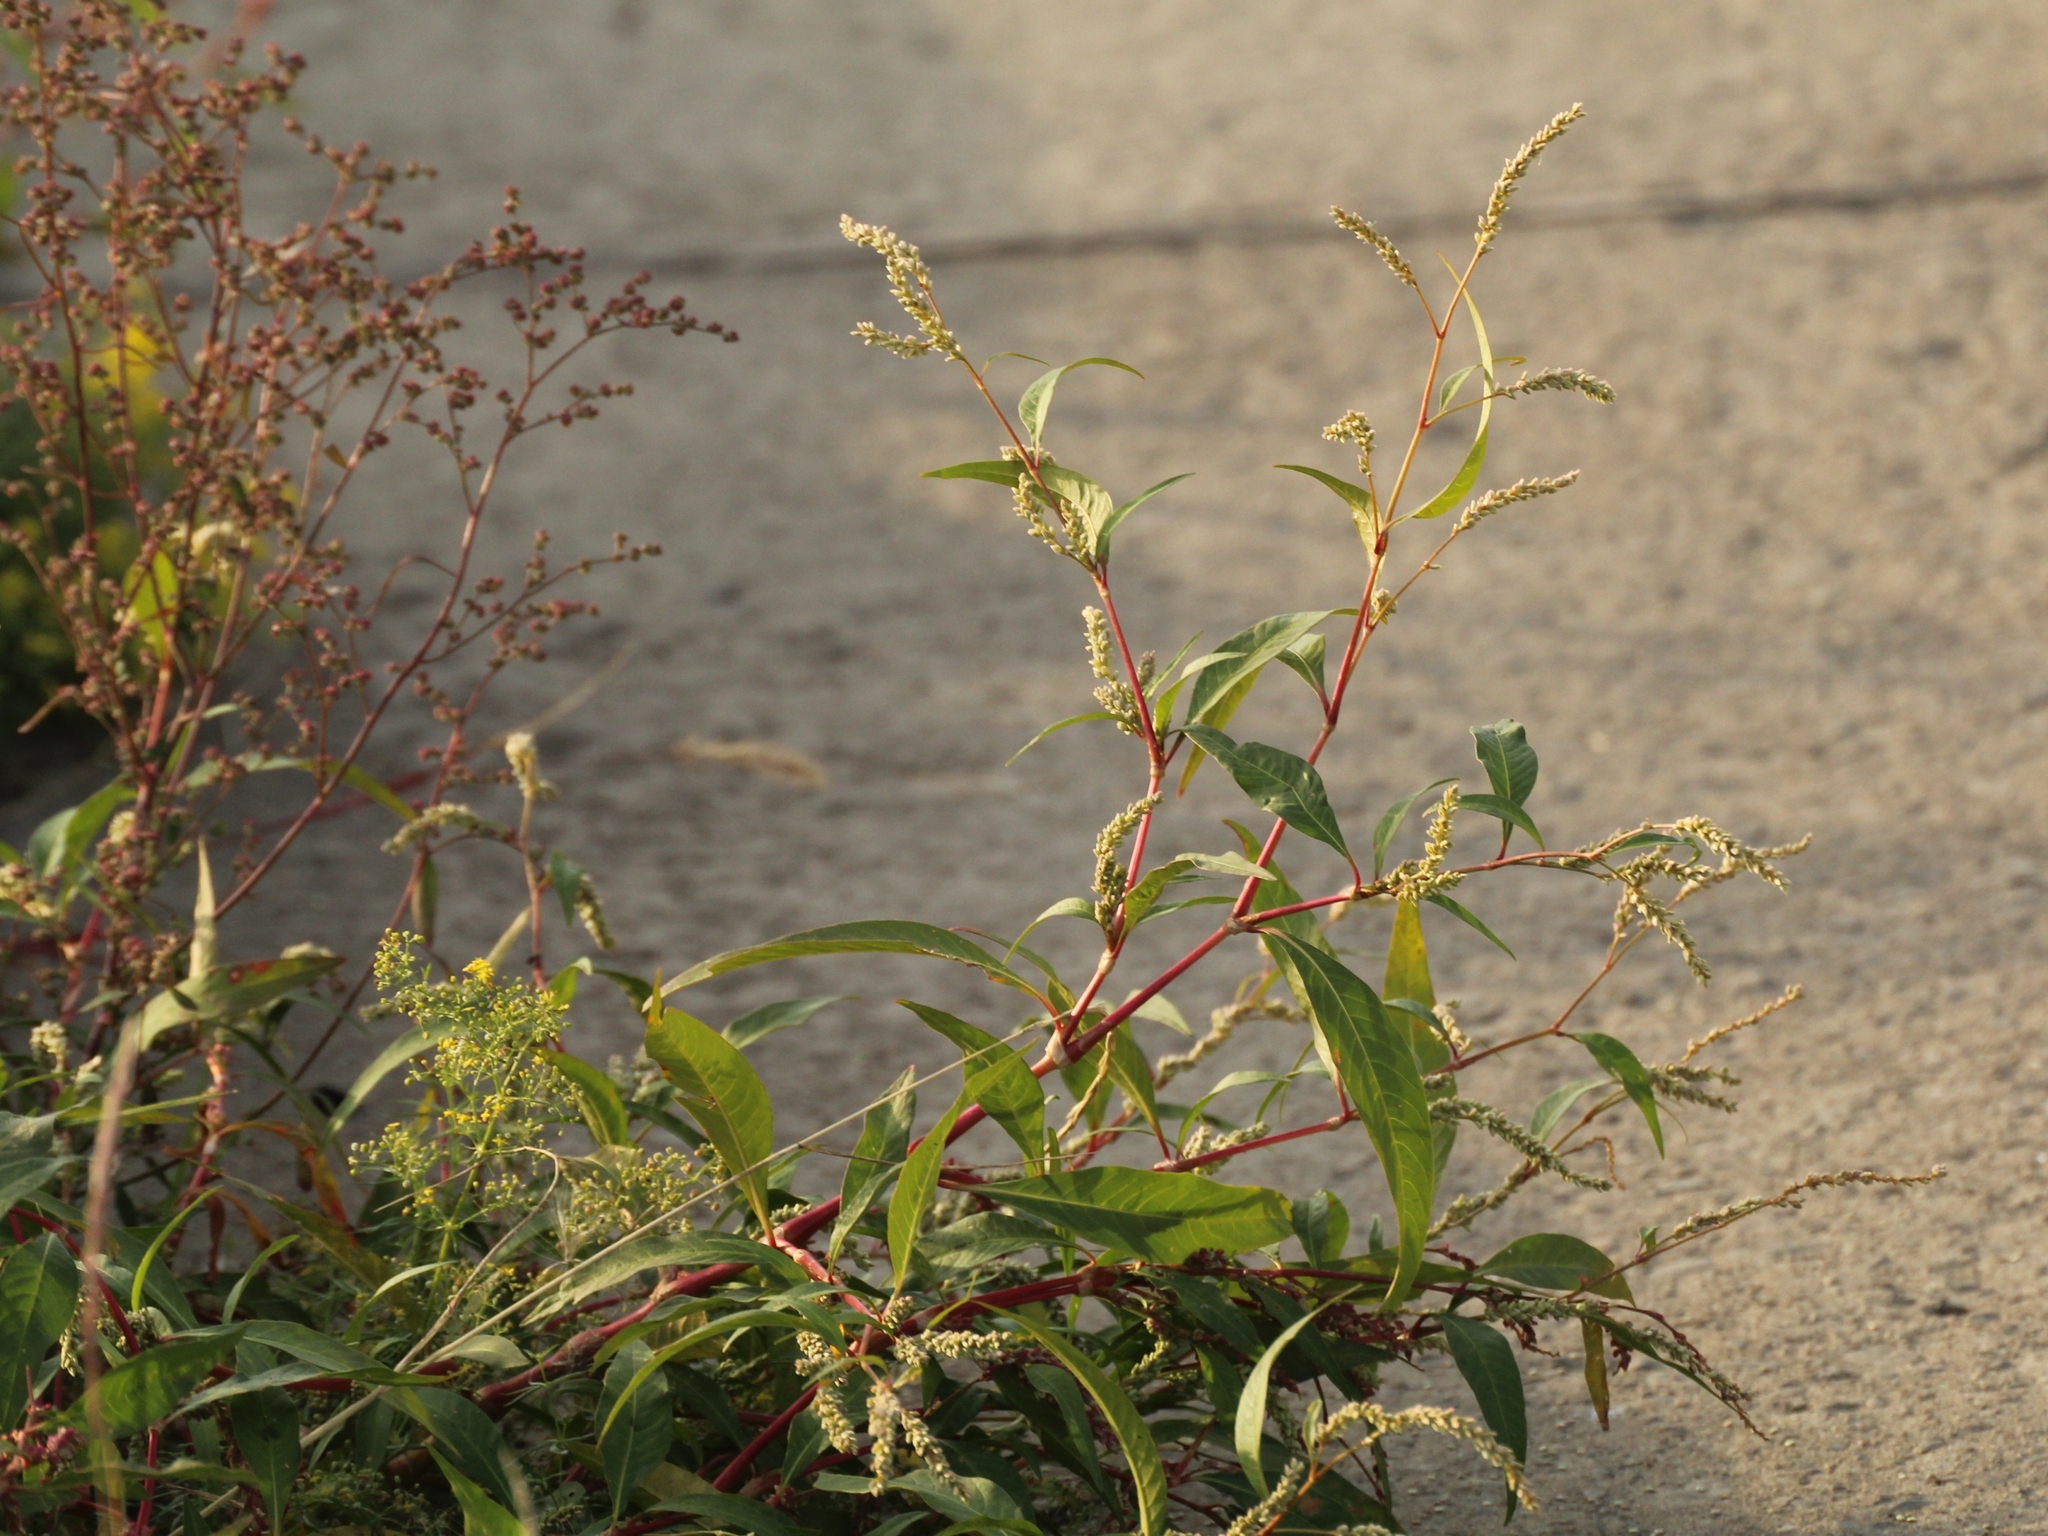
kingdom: Plantae
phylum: Tracheophyta
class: Magnoliopsida
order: Caryophyllales
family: Polygonaceae
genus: Persicaria
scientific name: Persicaria lapathifolia
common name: Curlytop knotweed
